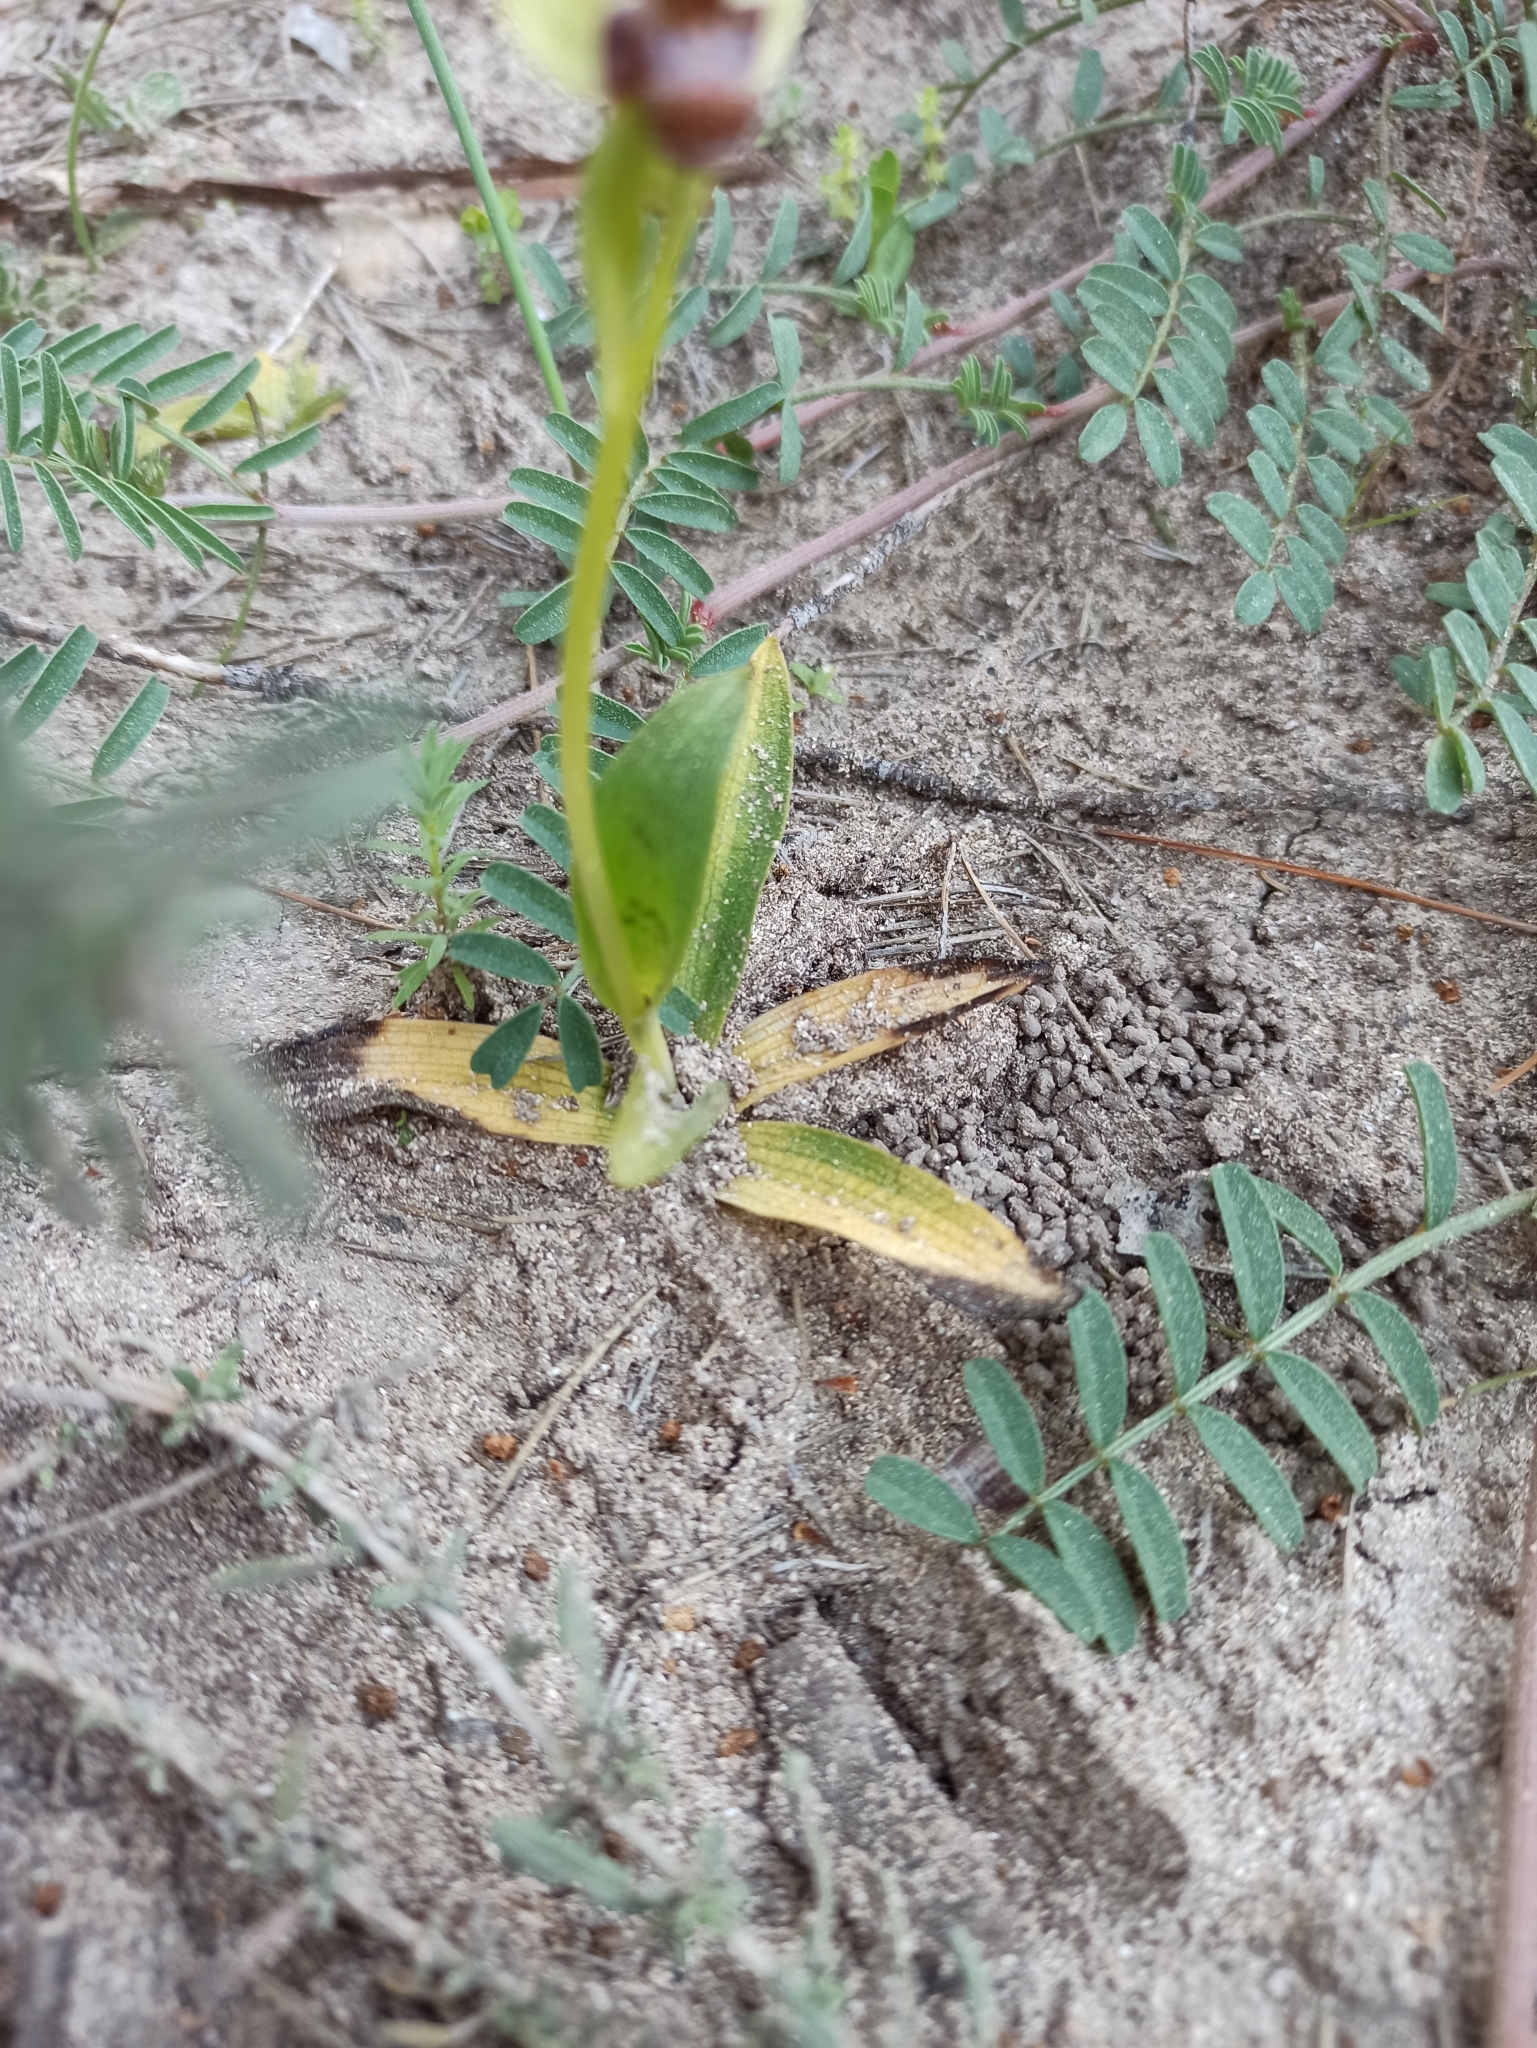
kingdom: Plantae
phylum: Tracheophyta
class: Liliopsida
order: Asparagales
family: Orchidaceae
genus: Ophrys
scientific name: Ophrys bombyliflora
